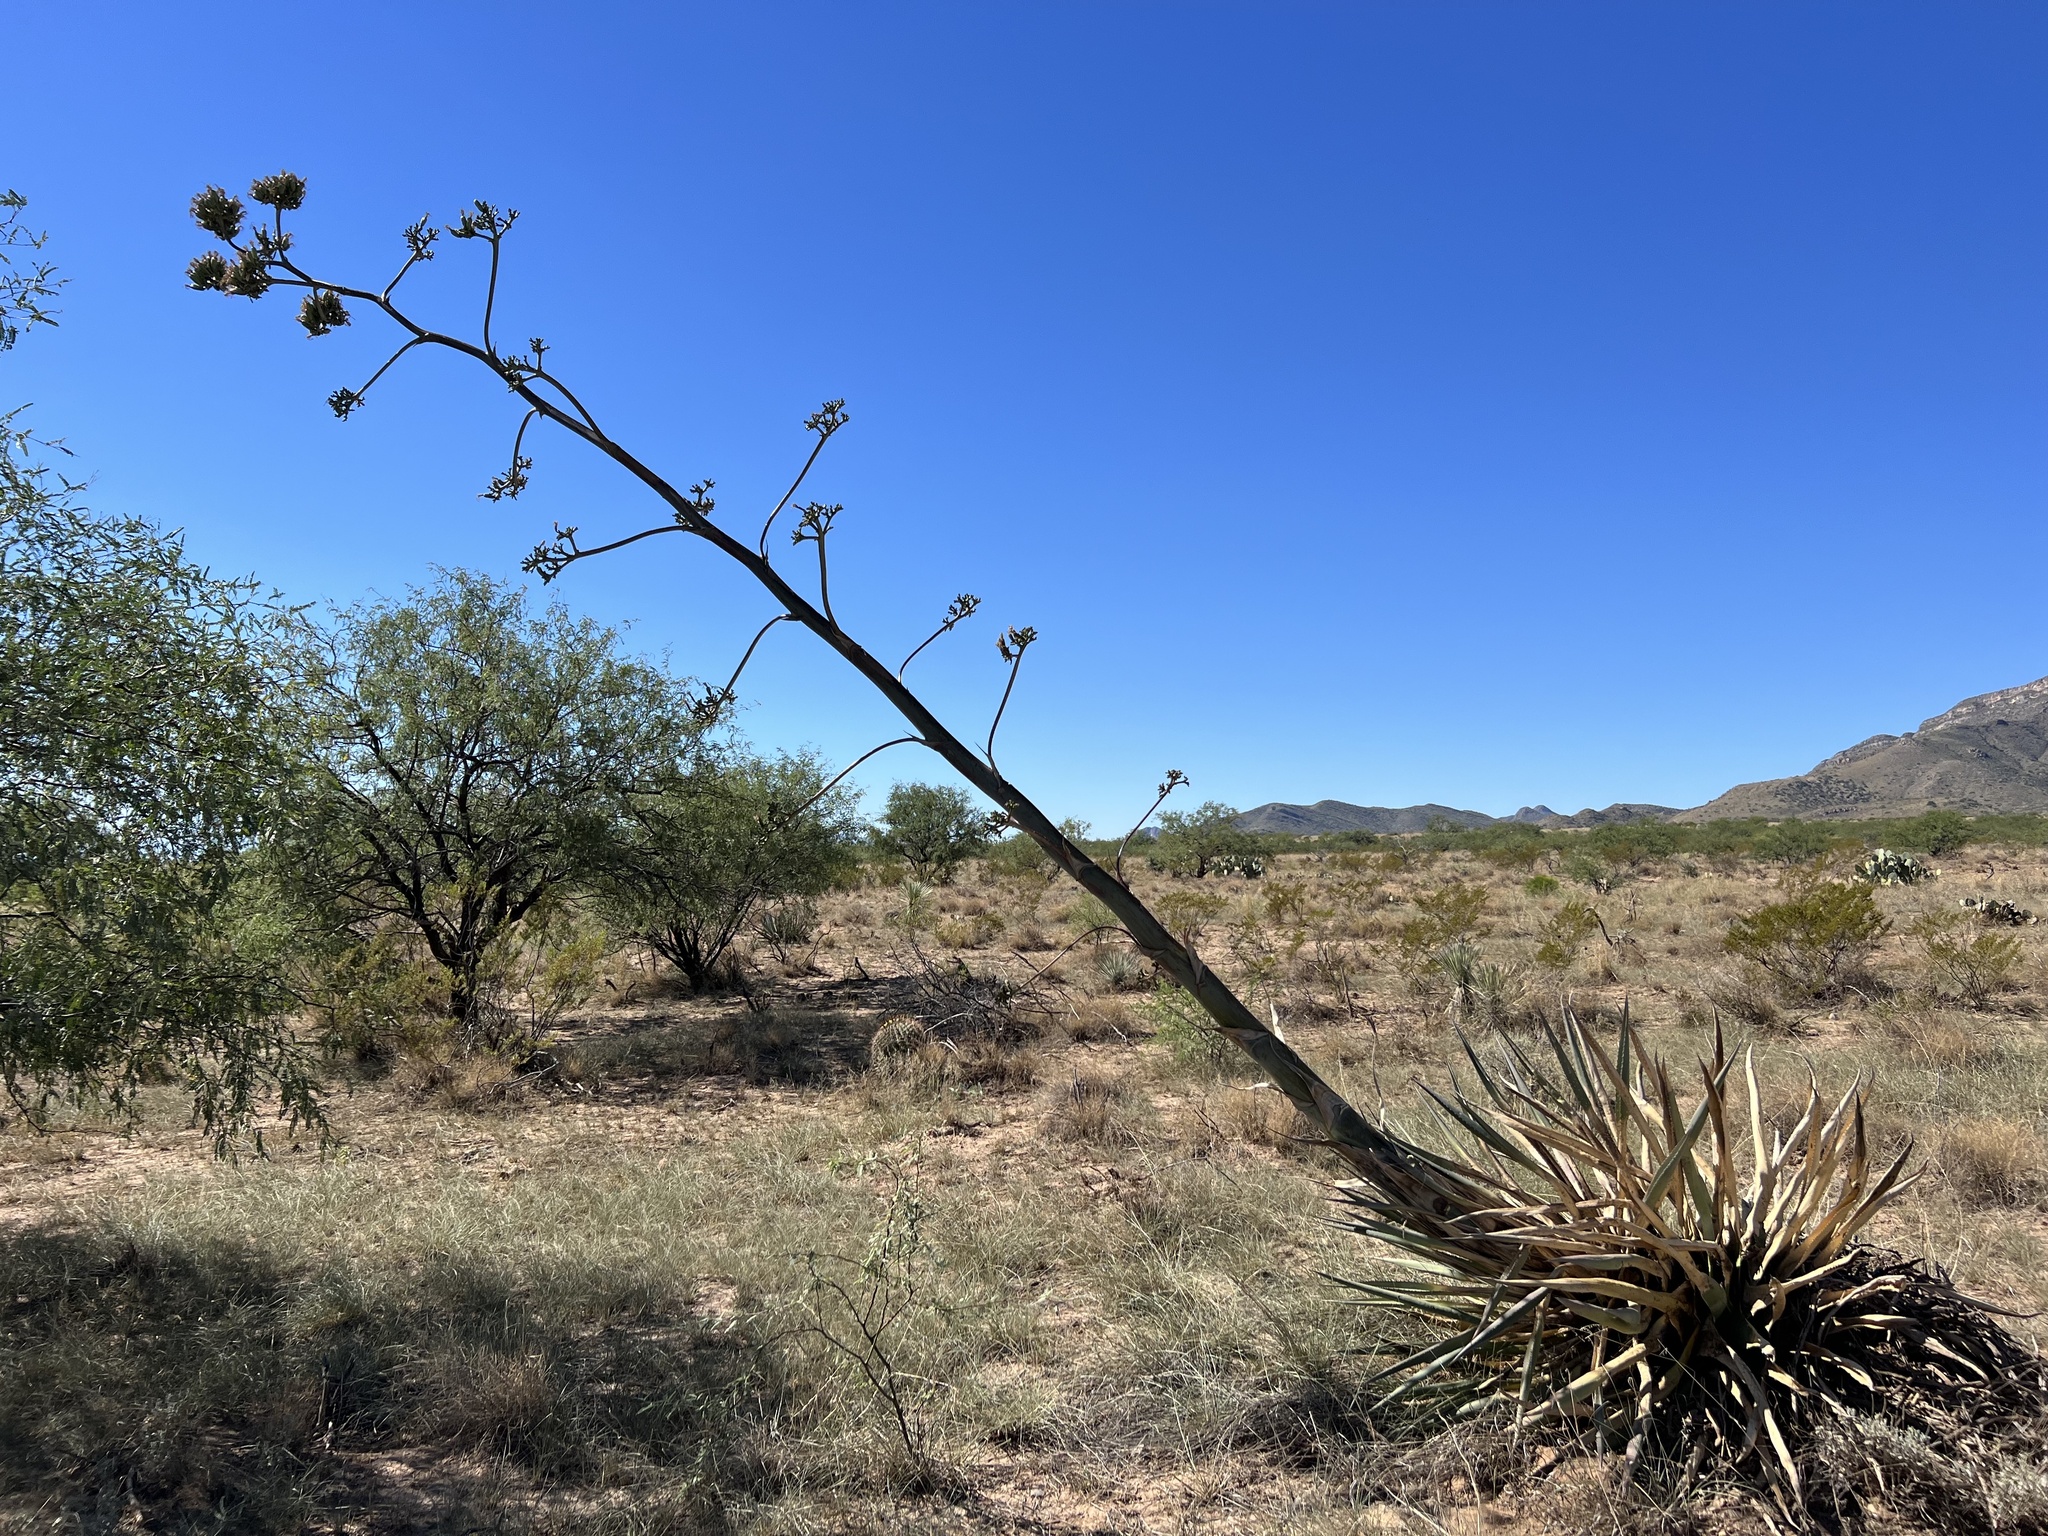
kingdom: Plantae
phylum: Tracheophyta
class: Liliopsida
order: Asparagales
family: Asparagaceae
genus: Agave
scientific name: Agave palmeri
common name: Palmer agave
